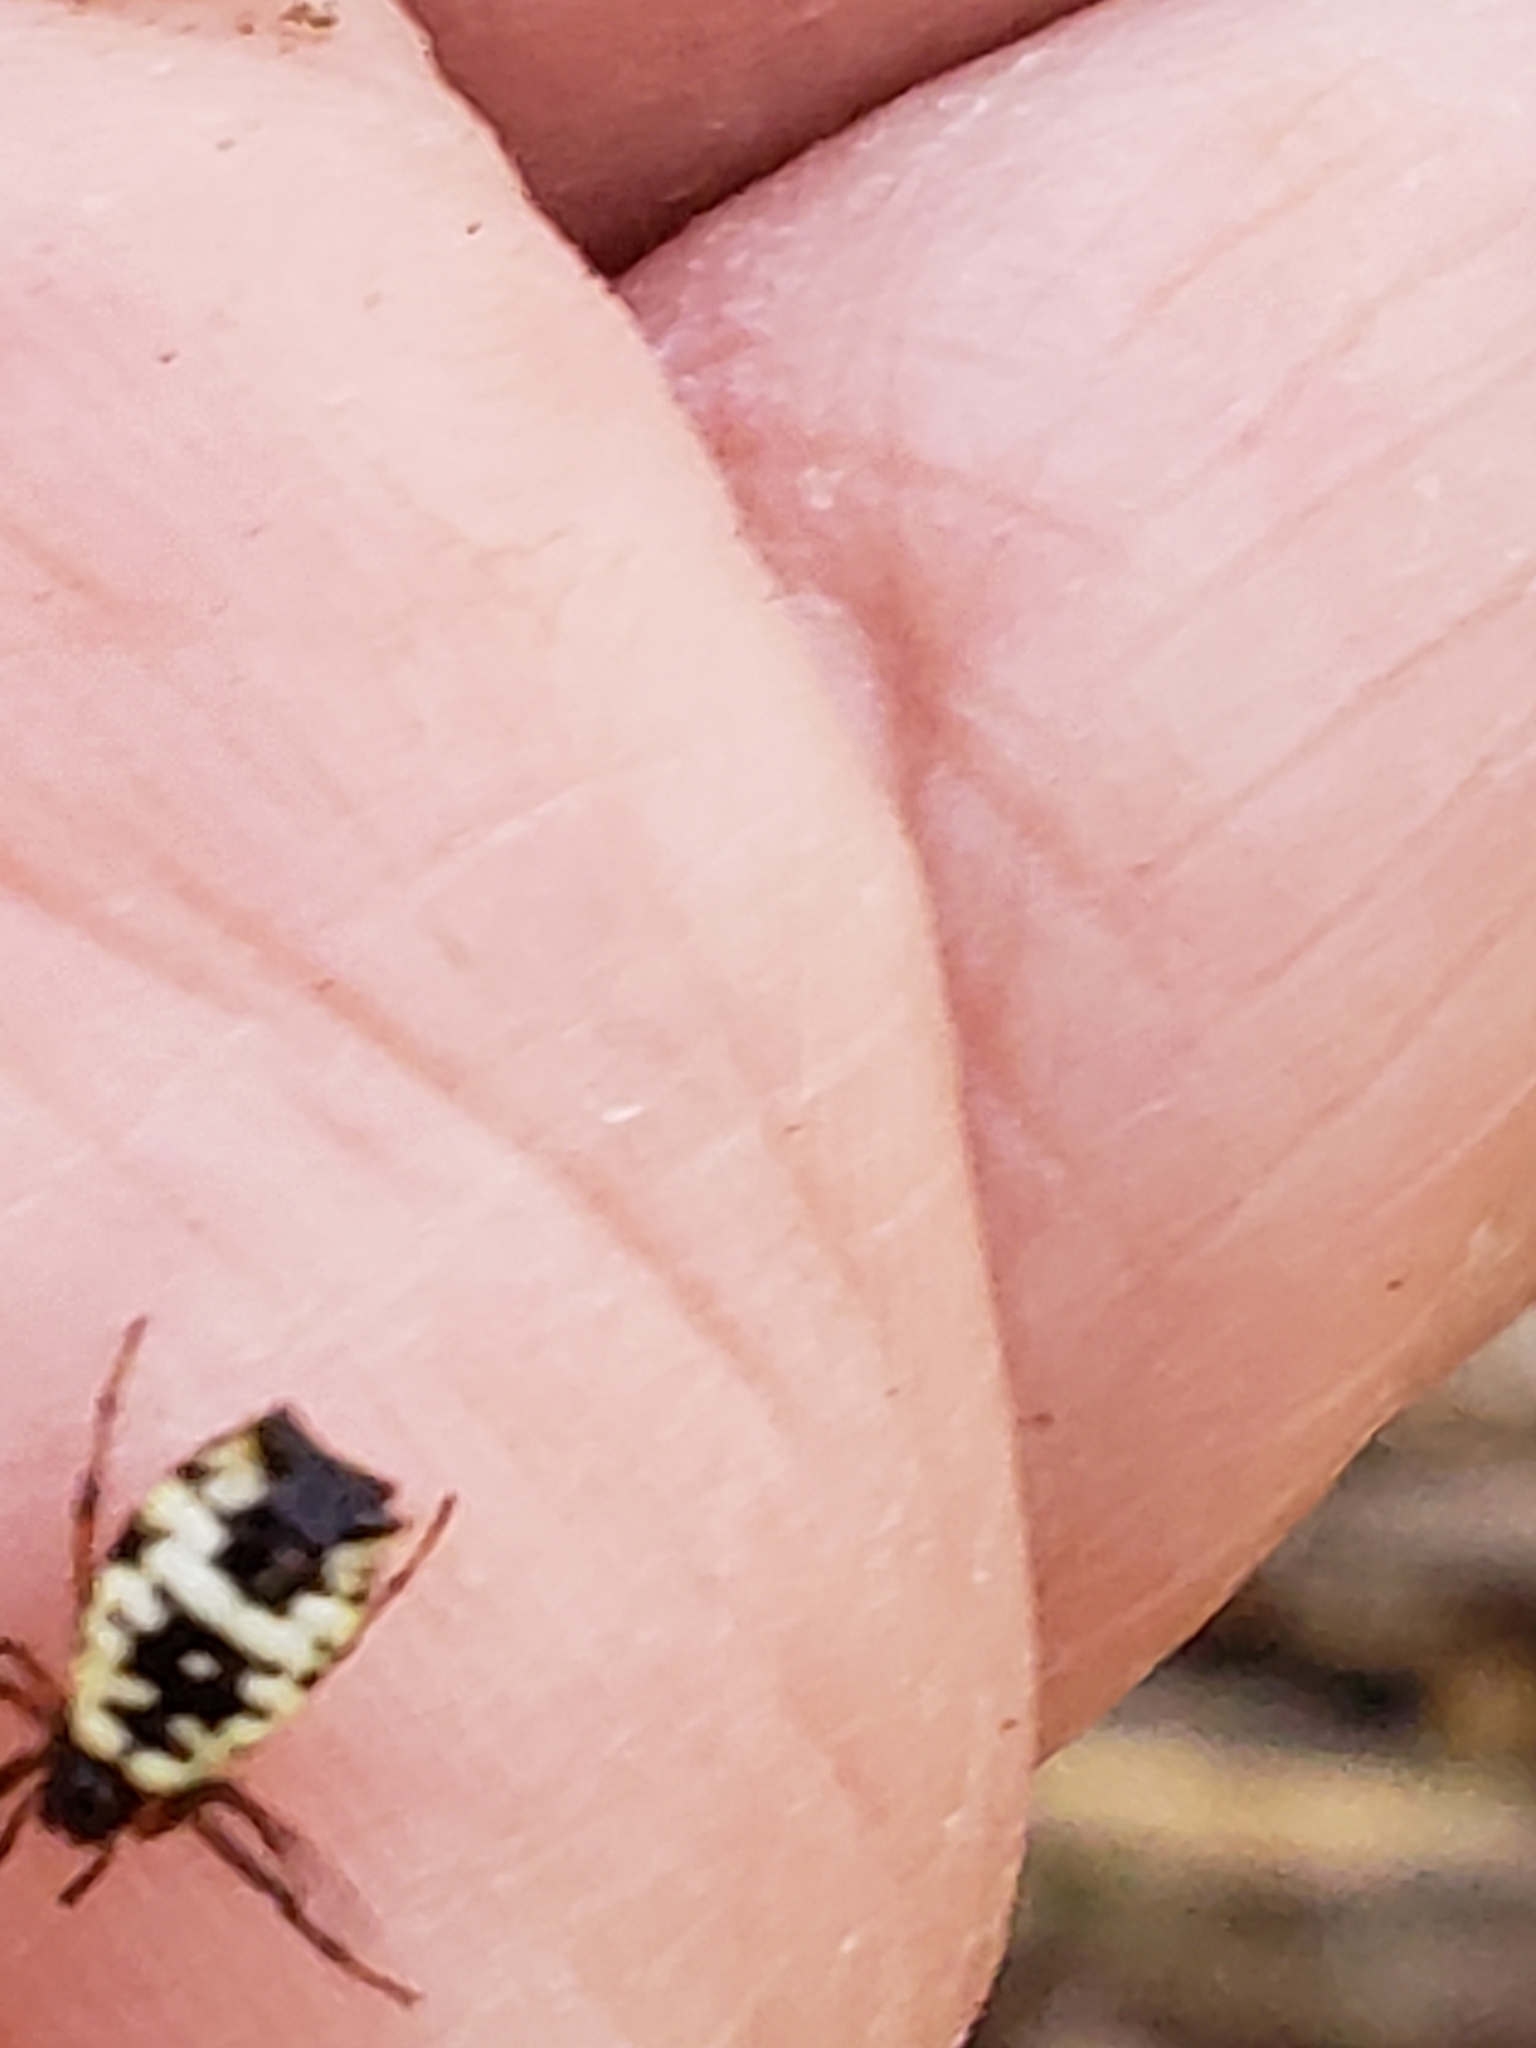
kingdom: Animalia
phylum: Arthropoda
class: Arachnida
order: Araneae
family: Araneidae
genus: Micrathena
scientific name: Micrathena mitrata
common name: Orb weavers
